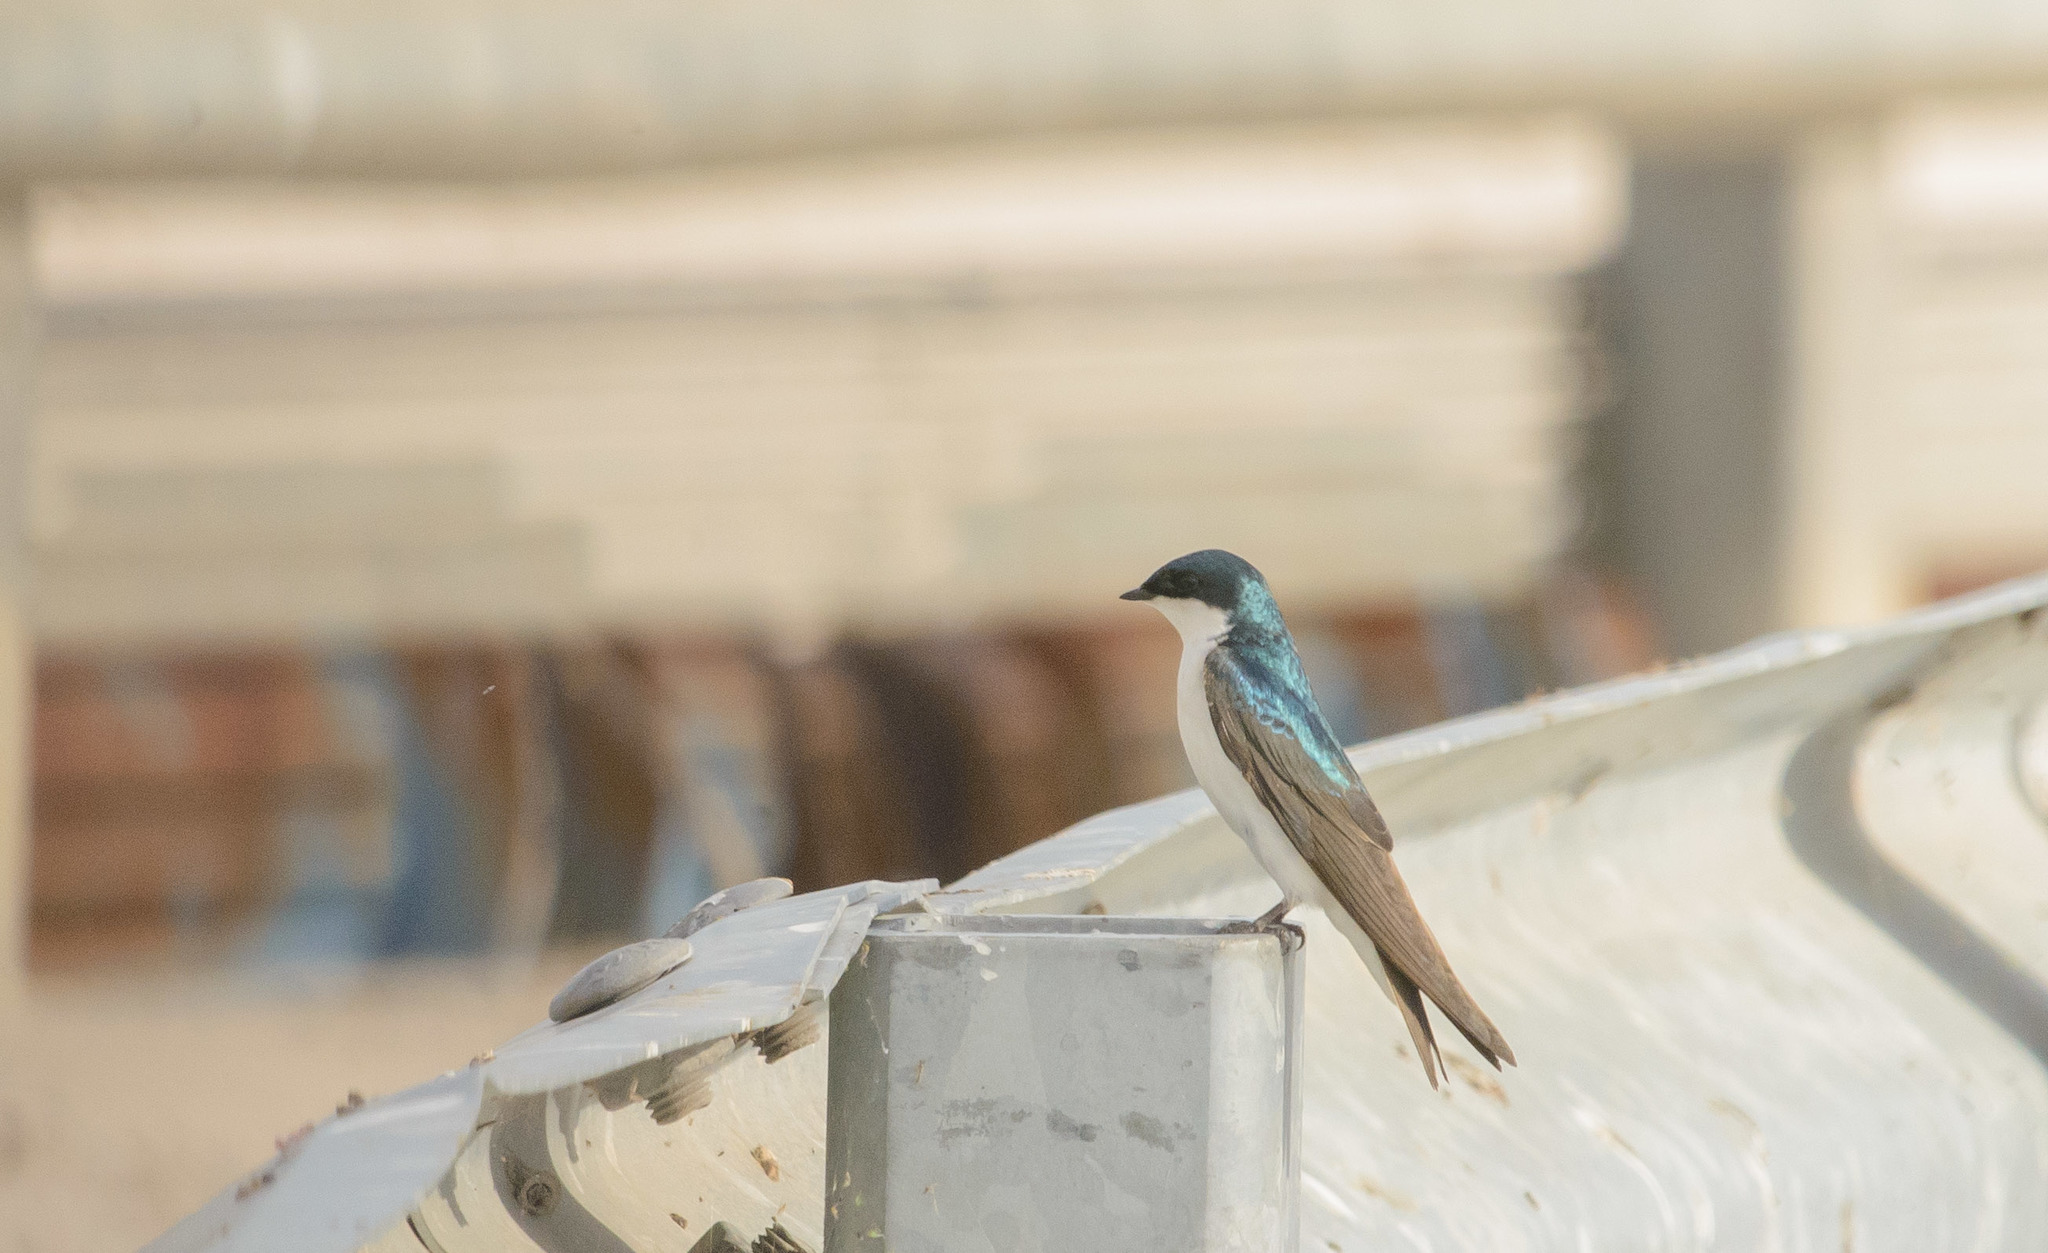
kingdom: Animalia
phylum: Chordata
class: Aves
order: Passeriformes
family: Hirundinidae
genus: Tachycineta
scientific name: Tachycineta bicolor
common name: Tree swallow
